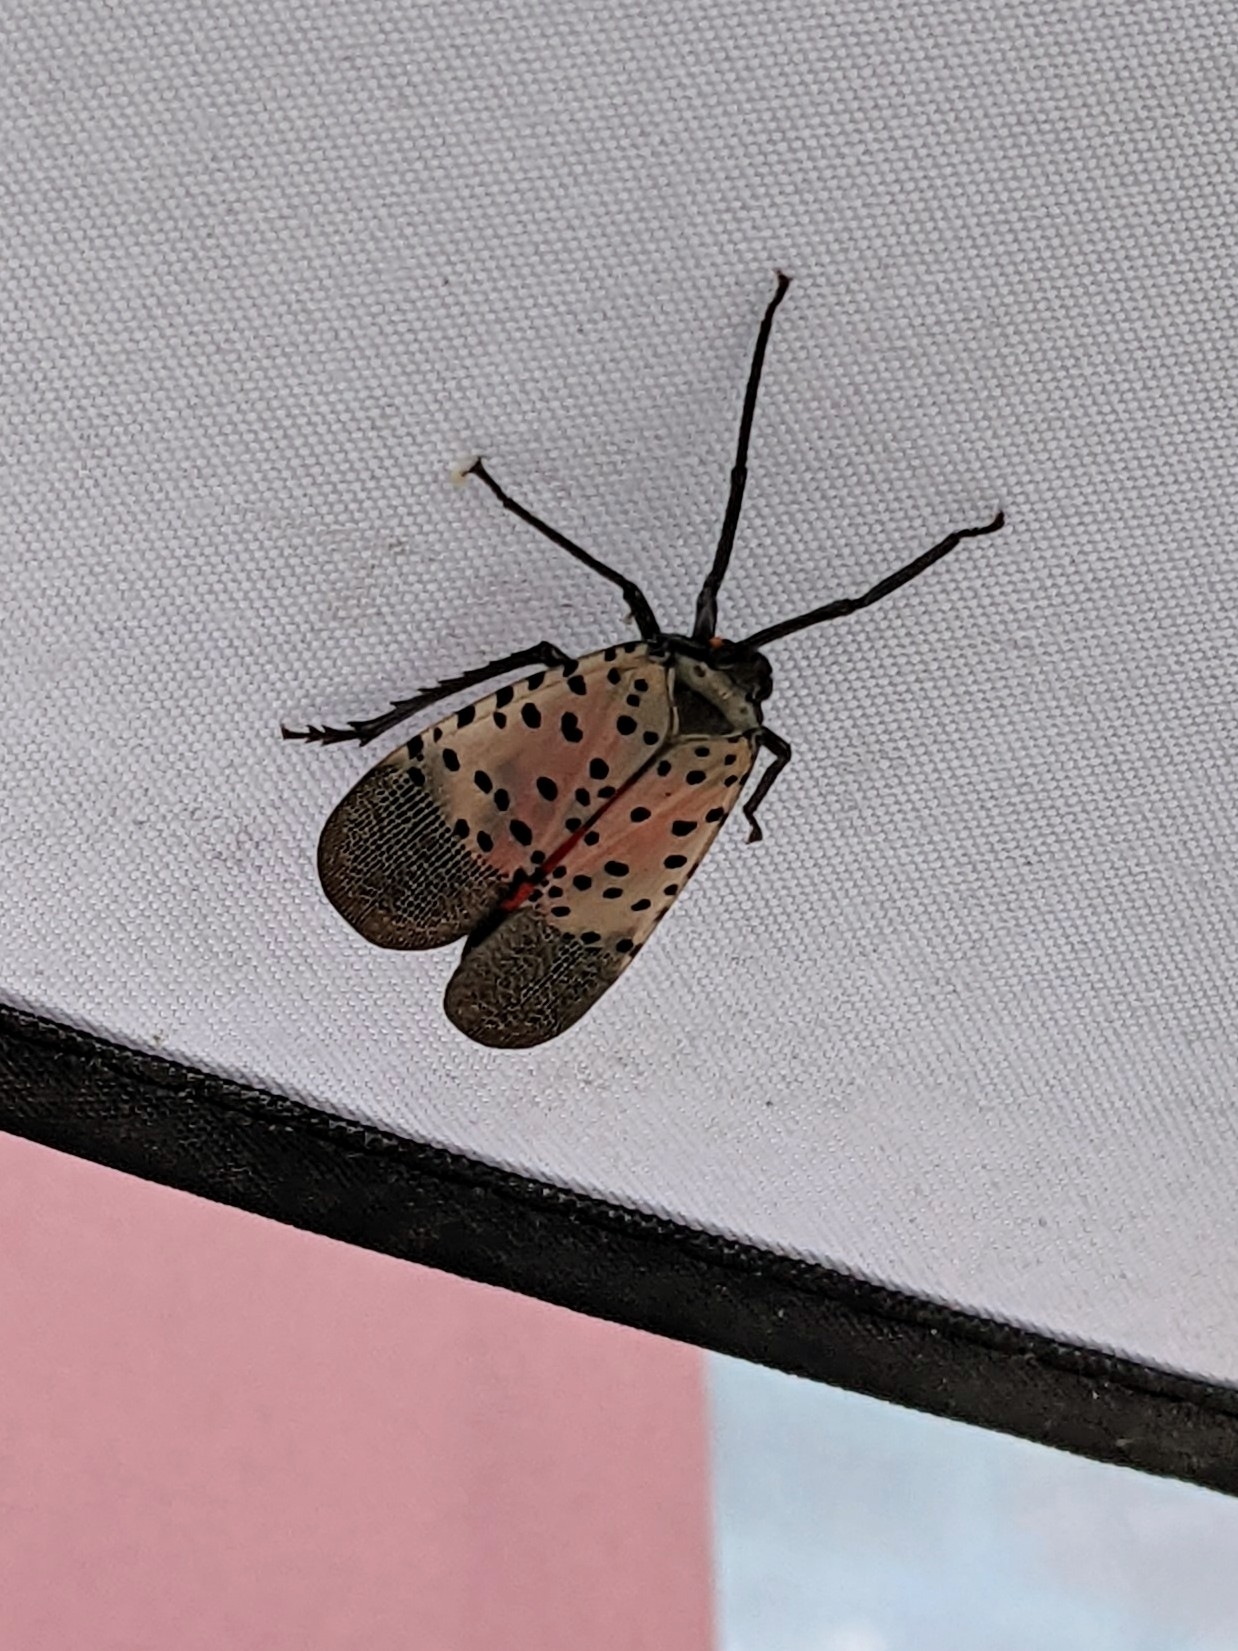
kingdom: Animalia
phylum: Arthropoda
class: Insecta
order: Hemiptera
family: Fulgoridae
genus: Lycorma
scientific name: Lycorma delicatula
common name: Spotted lanternfly
